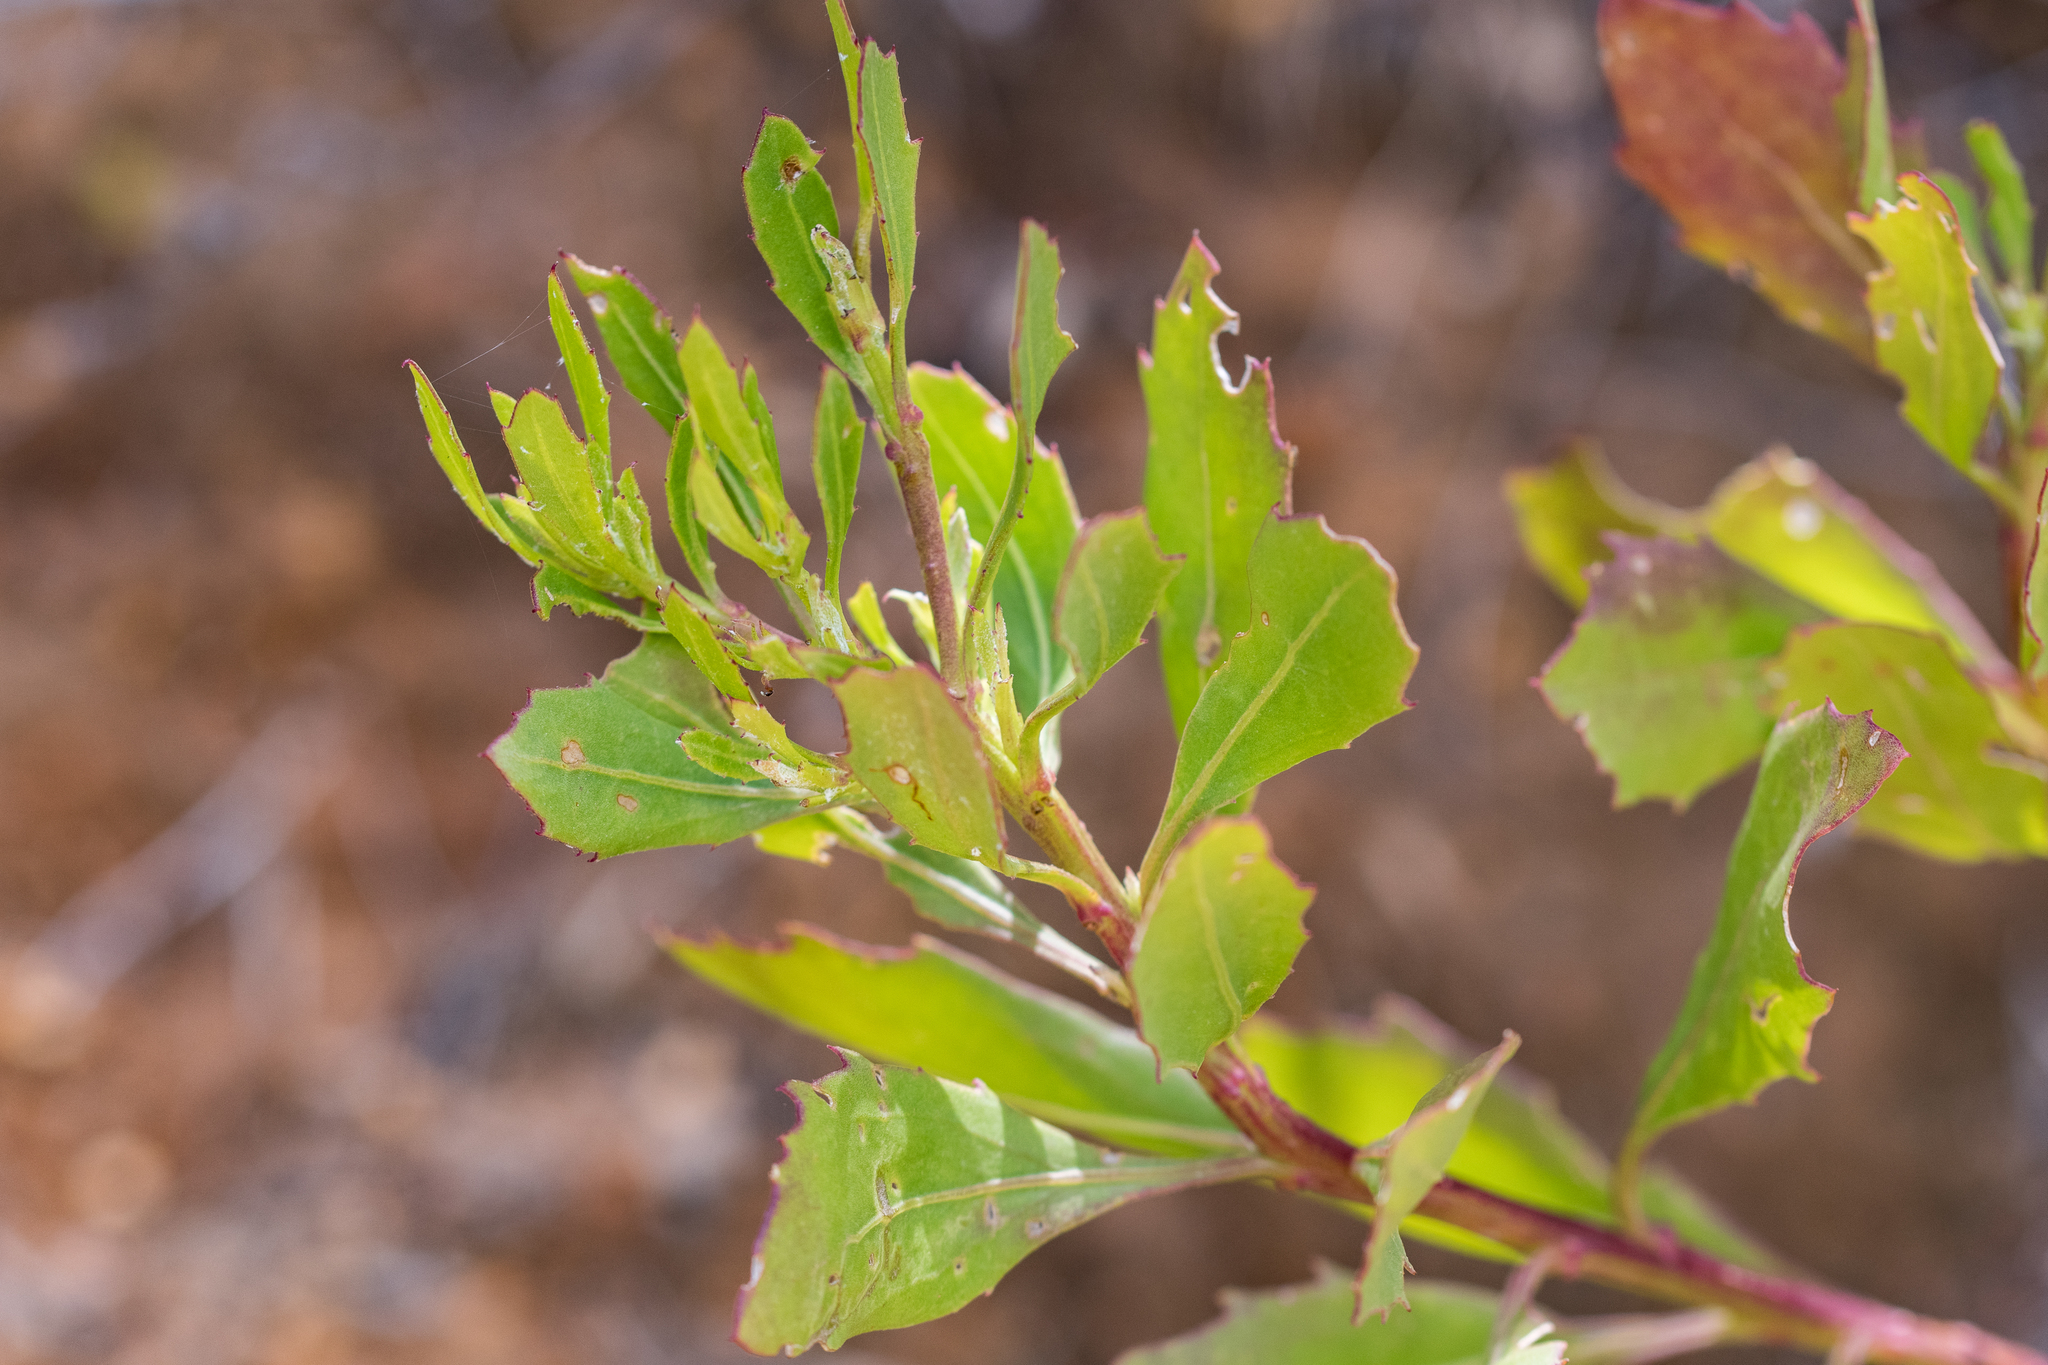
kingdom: Plantae
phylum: Tracheophyta
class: Magnoliopsida
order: Asterales
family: Asteraceae
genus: Osteospermum
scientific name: Osteospermum moniliferum
